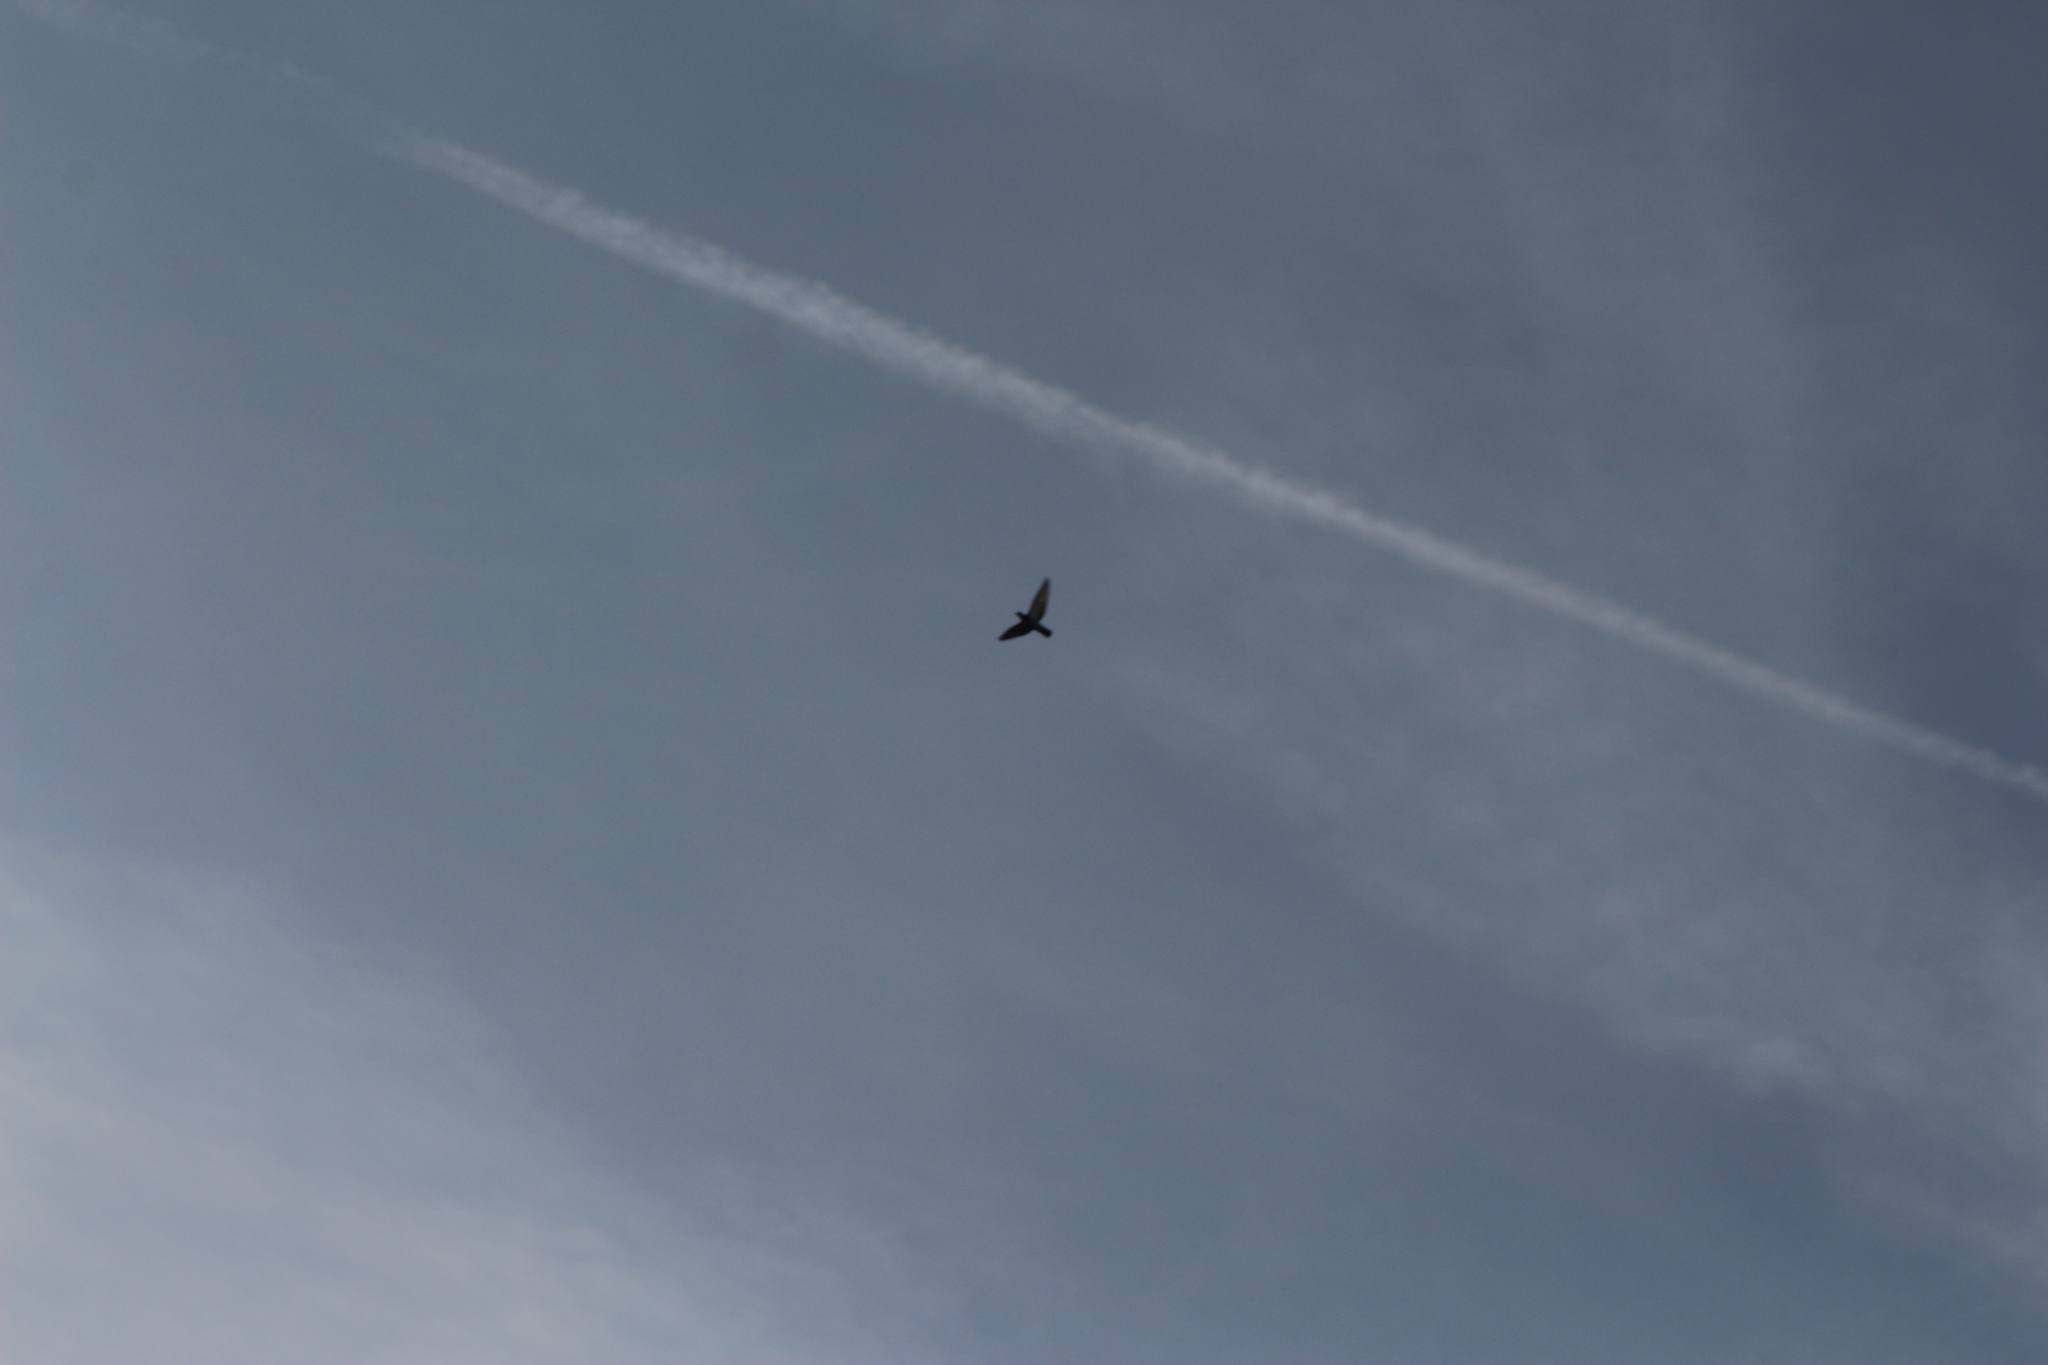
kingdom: Animalia
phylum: Chordata
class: Aves
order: Columbiformes
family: Columbidae
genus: Columba
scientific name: Columba livia
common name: Rock pigeon
